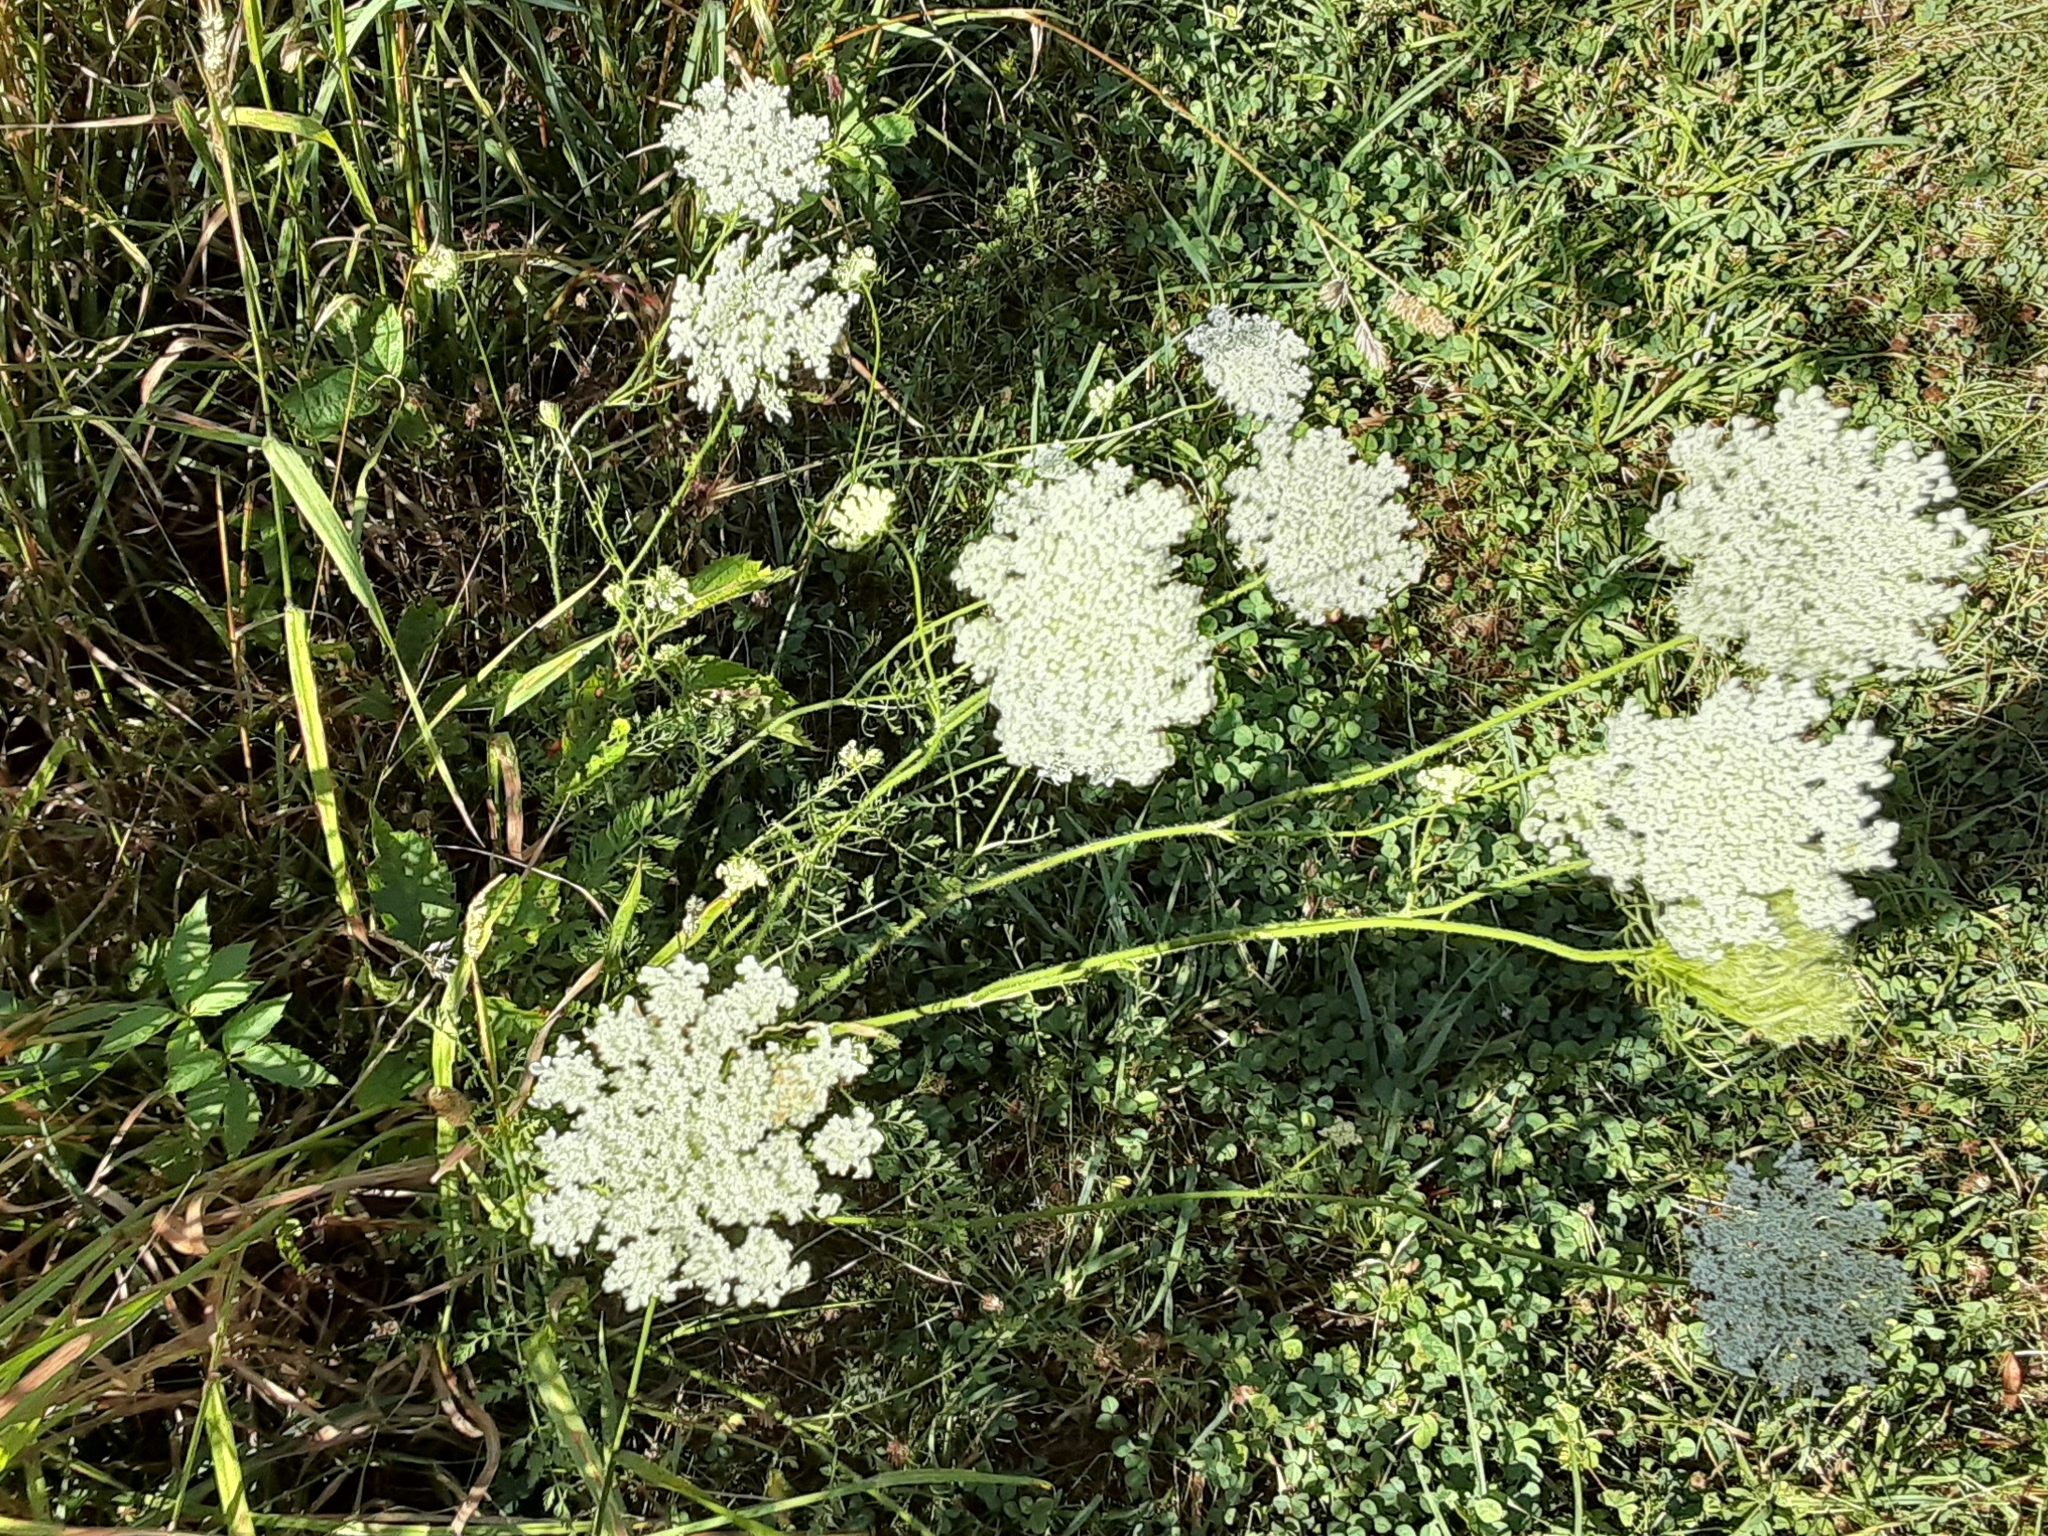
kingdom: Plantae
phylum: Tracheophyta
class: Magnoliopsida
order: Apiales
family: Apiaceae
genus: Daucus
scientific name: Daucus carota
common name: Wild carrot
